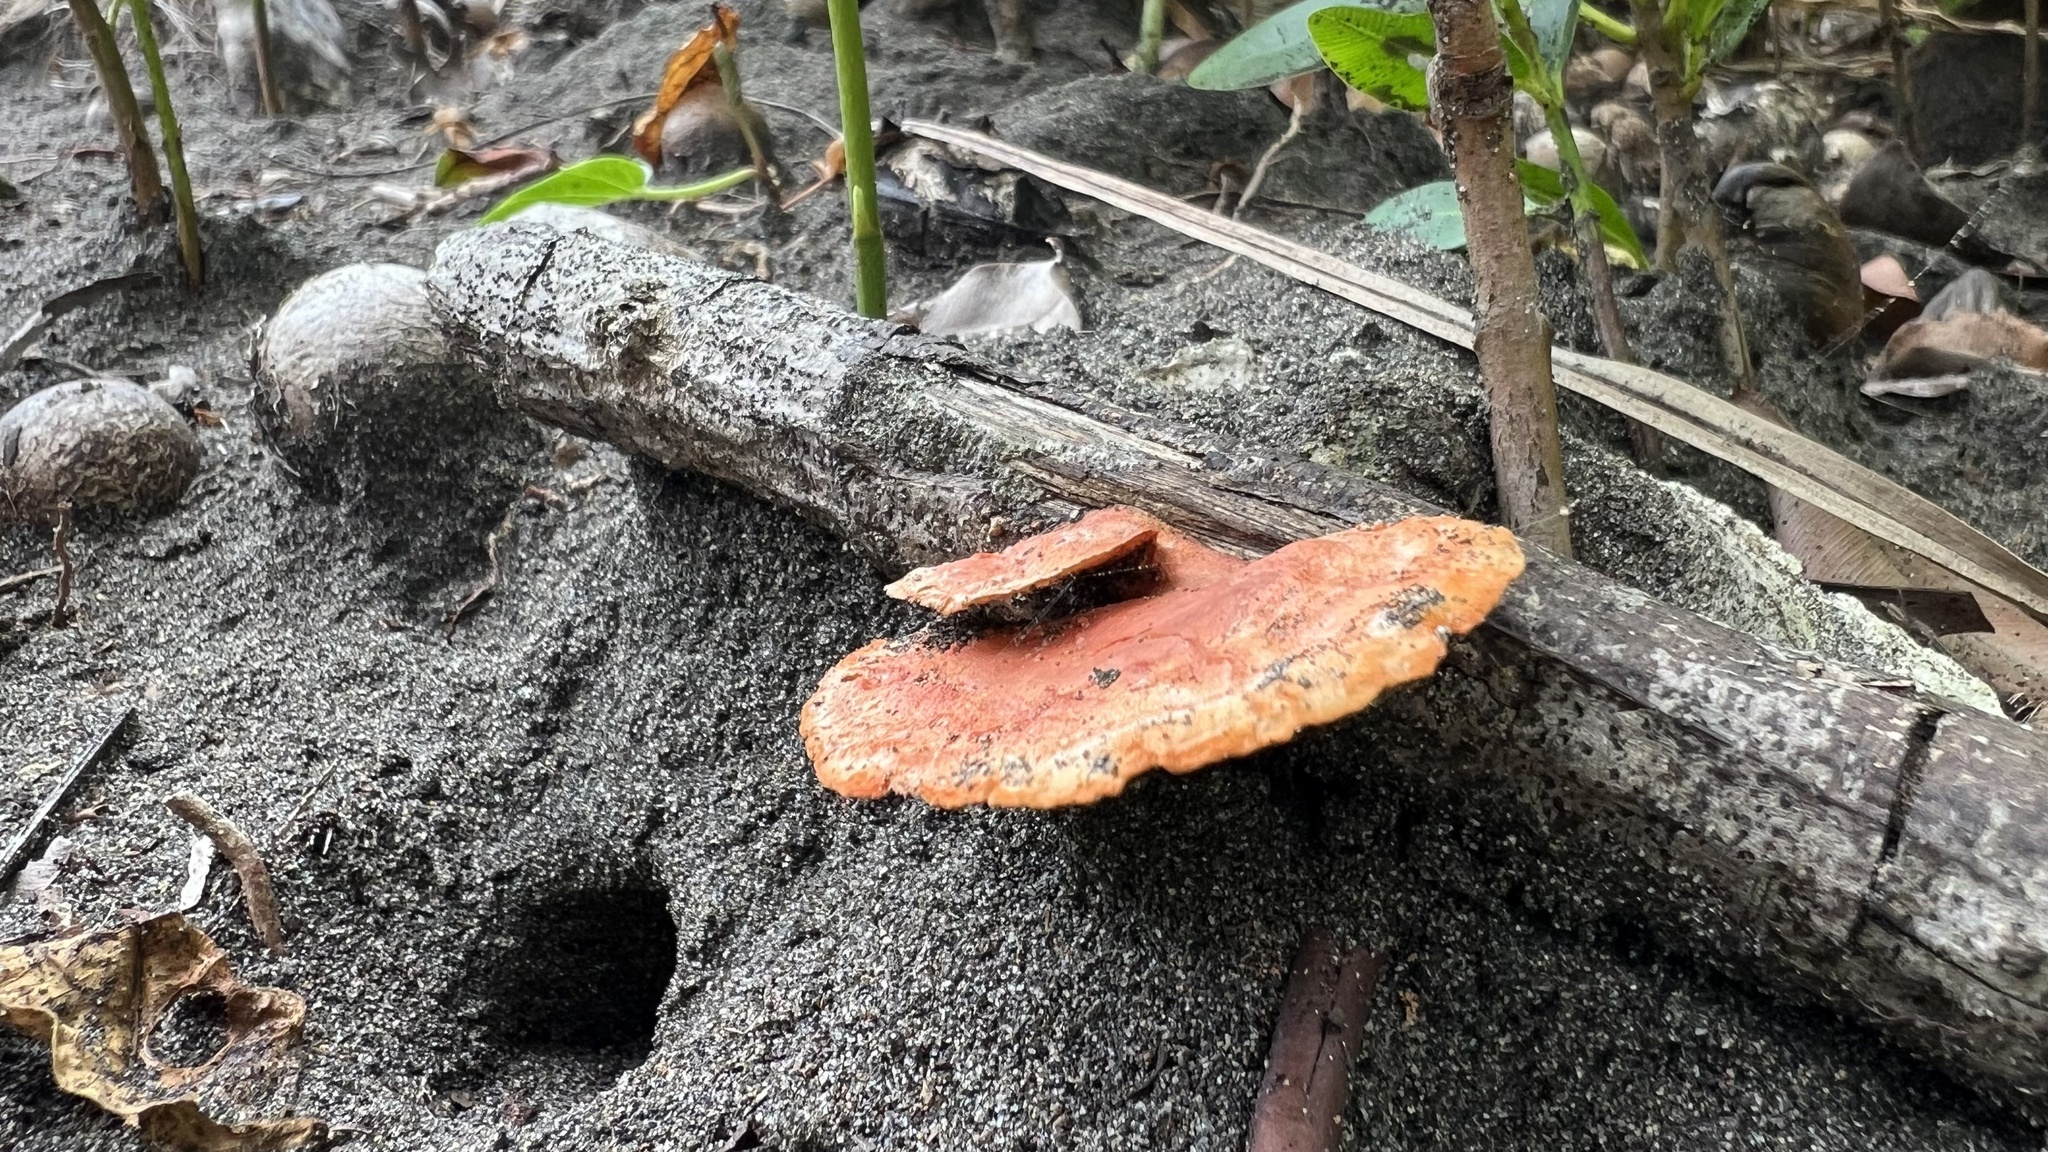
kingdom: Fungi
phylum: Basidiomycota
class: Agaricomycetes
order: Polyporales
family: Polyporaceae
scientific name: Polyporaceae
